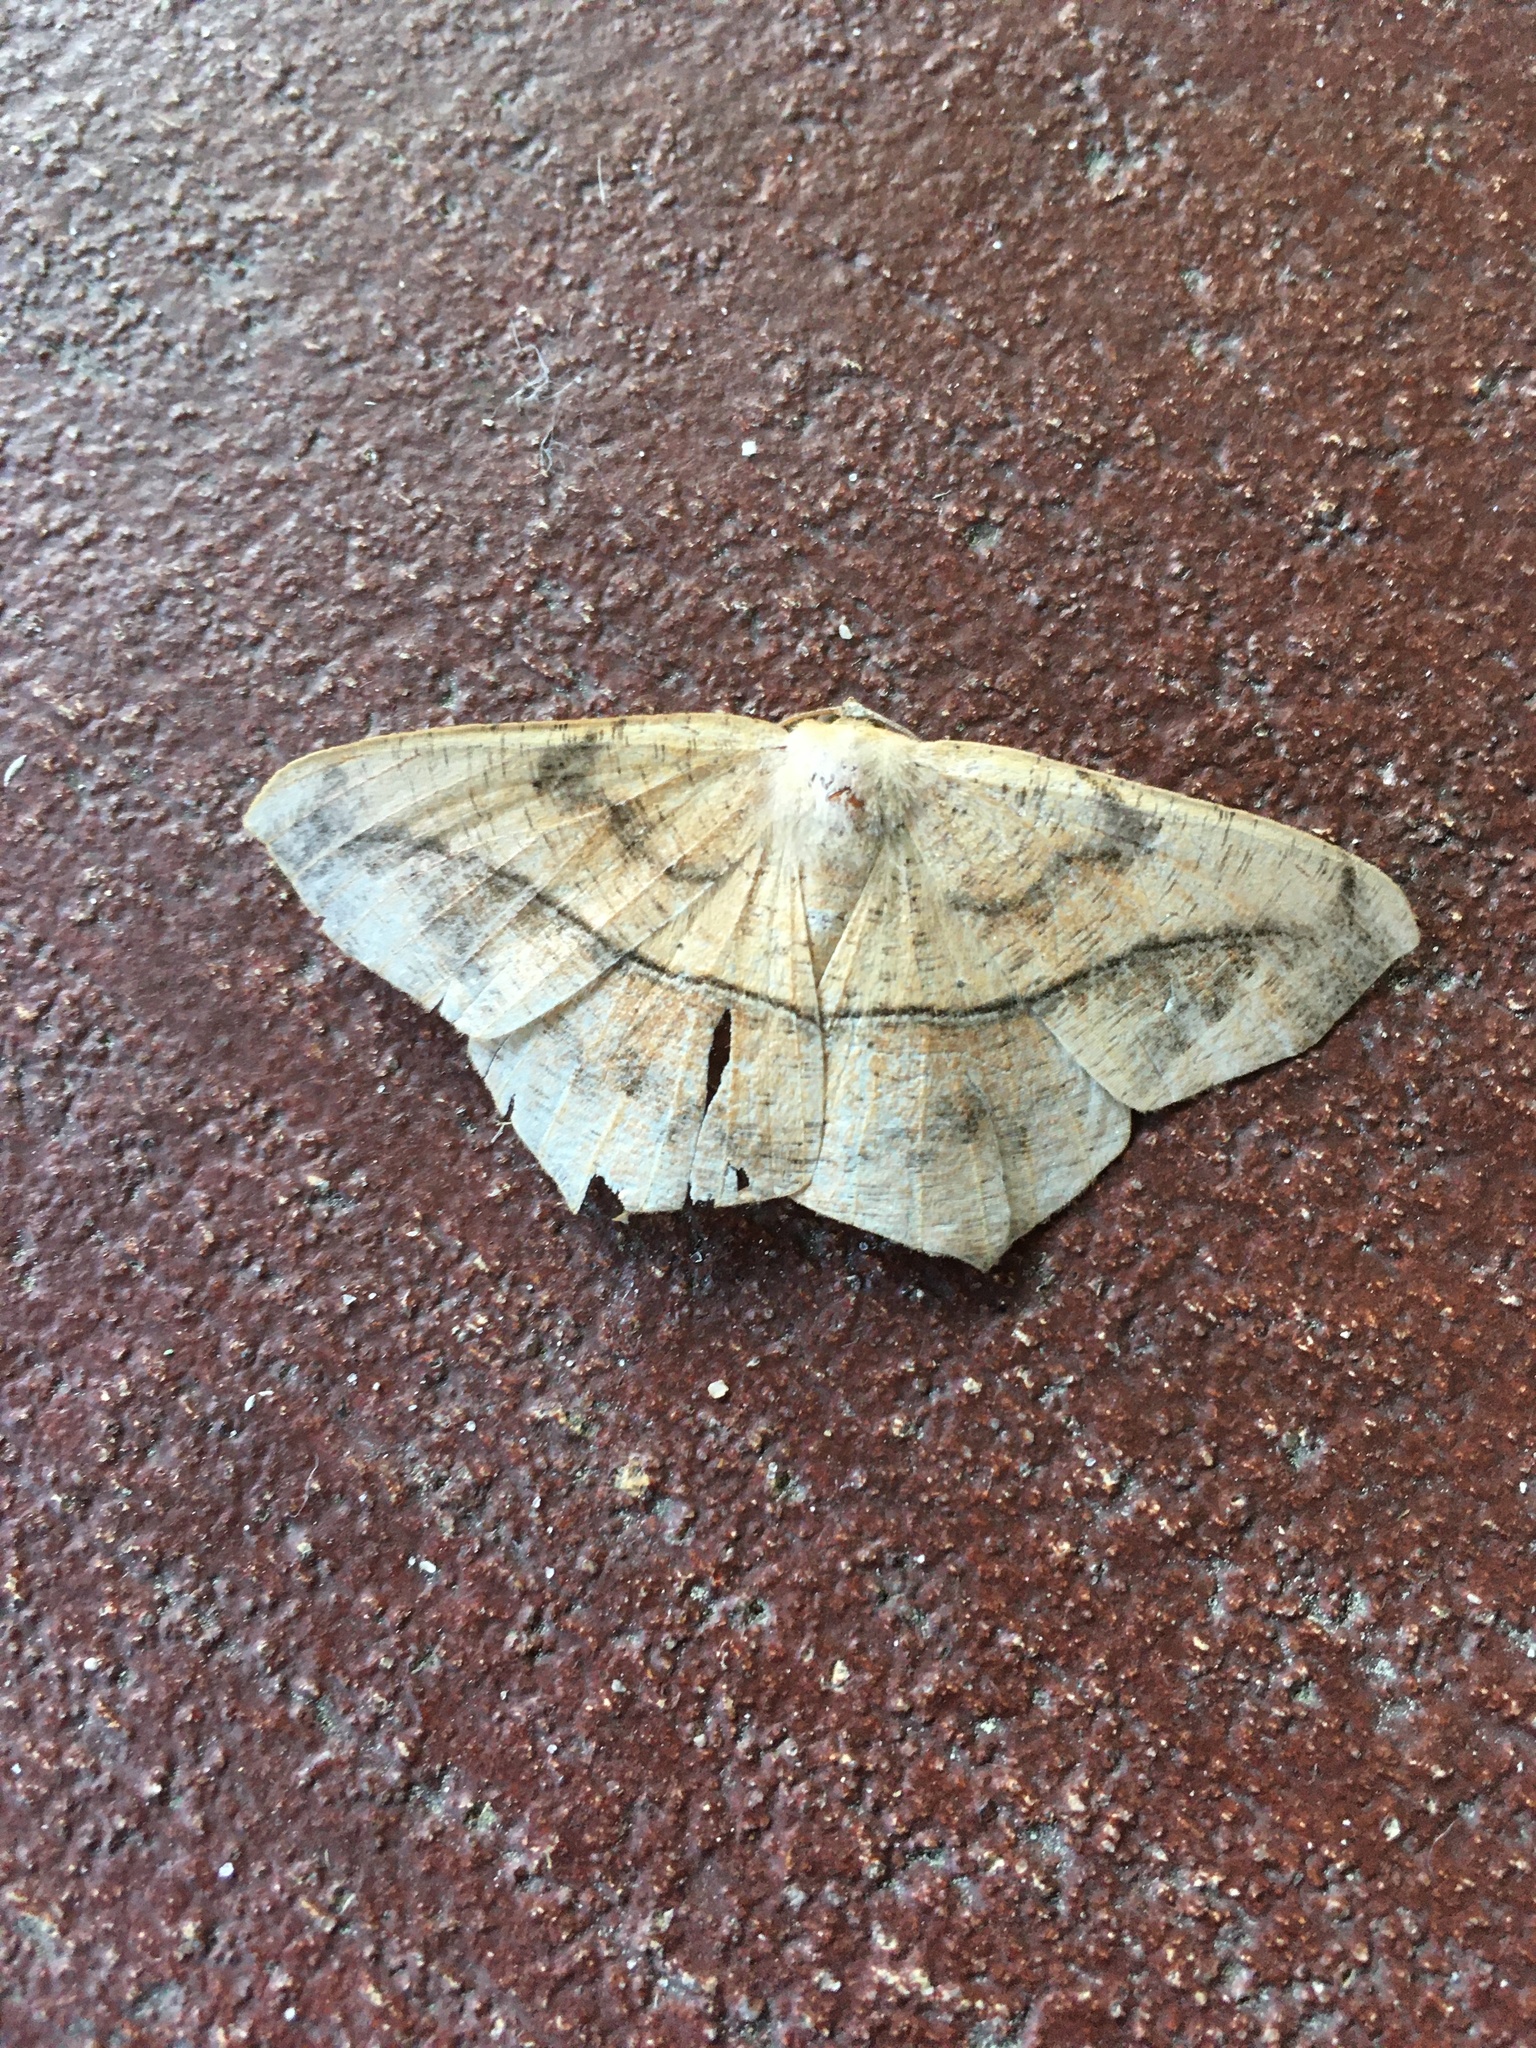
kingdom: Animalia
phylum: Arthropoda
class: Insecta
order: Lepidoptera
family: Geometridae
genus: Prochoerodes
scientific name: Prochoerodes lineola
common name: Large maple spanworm
